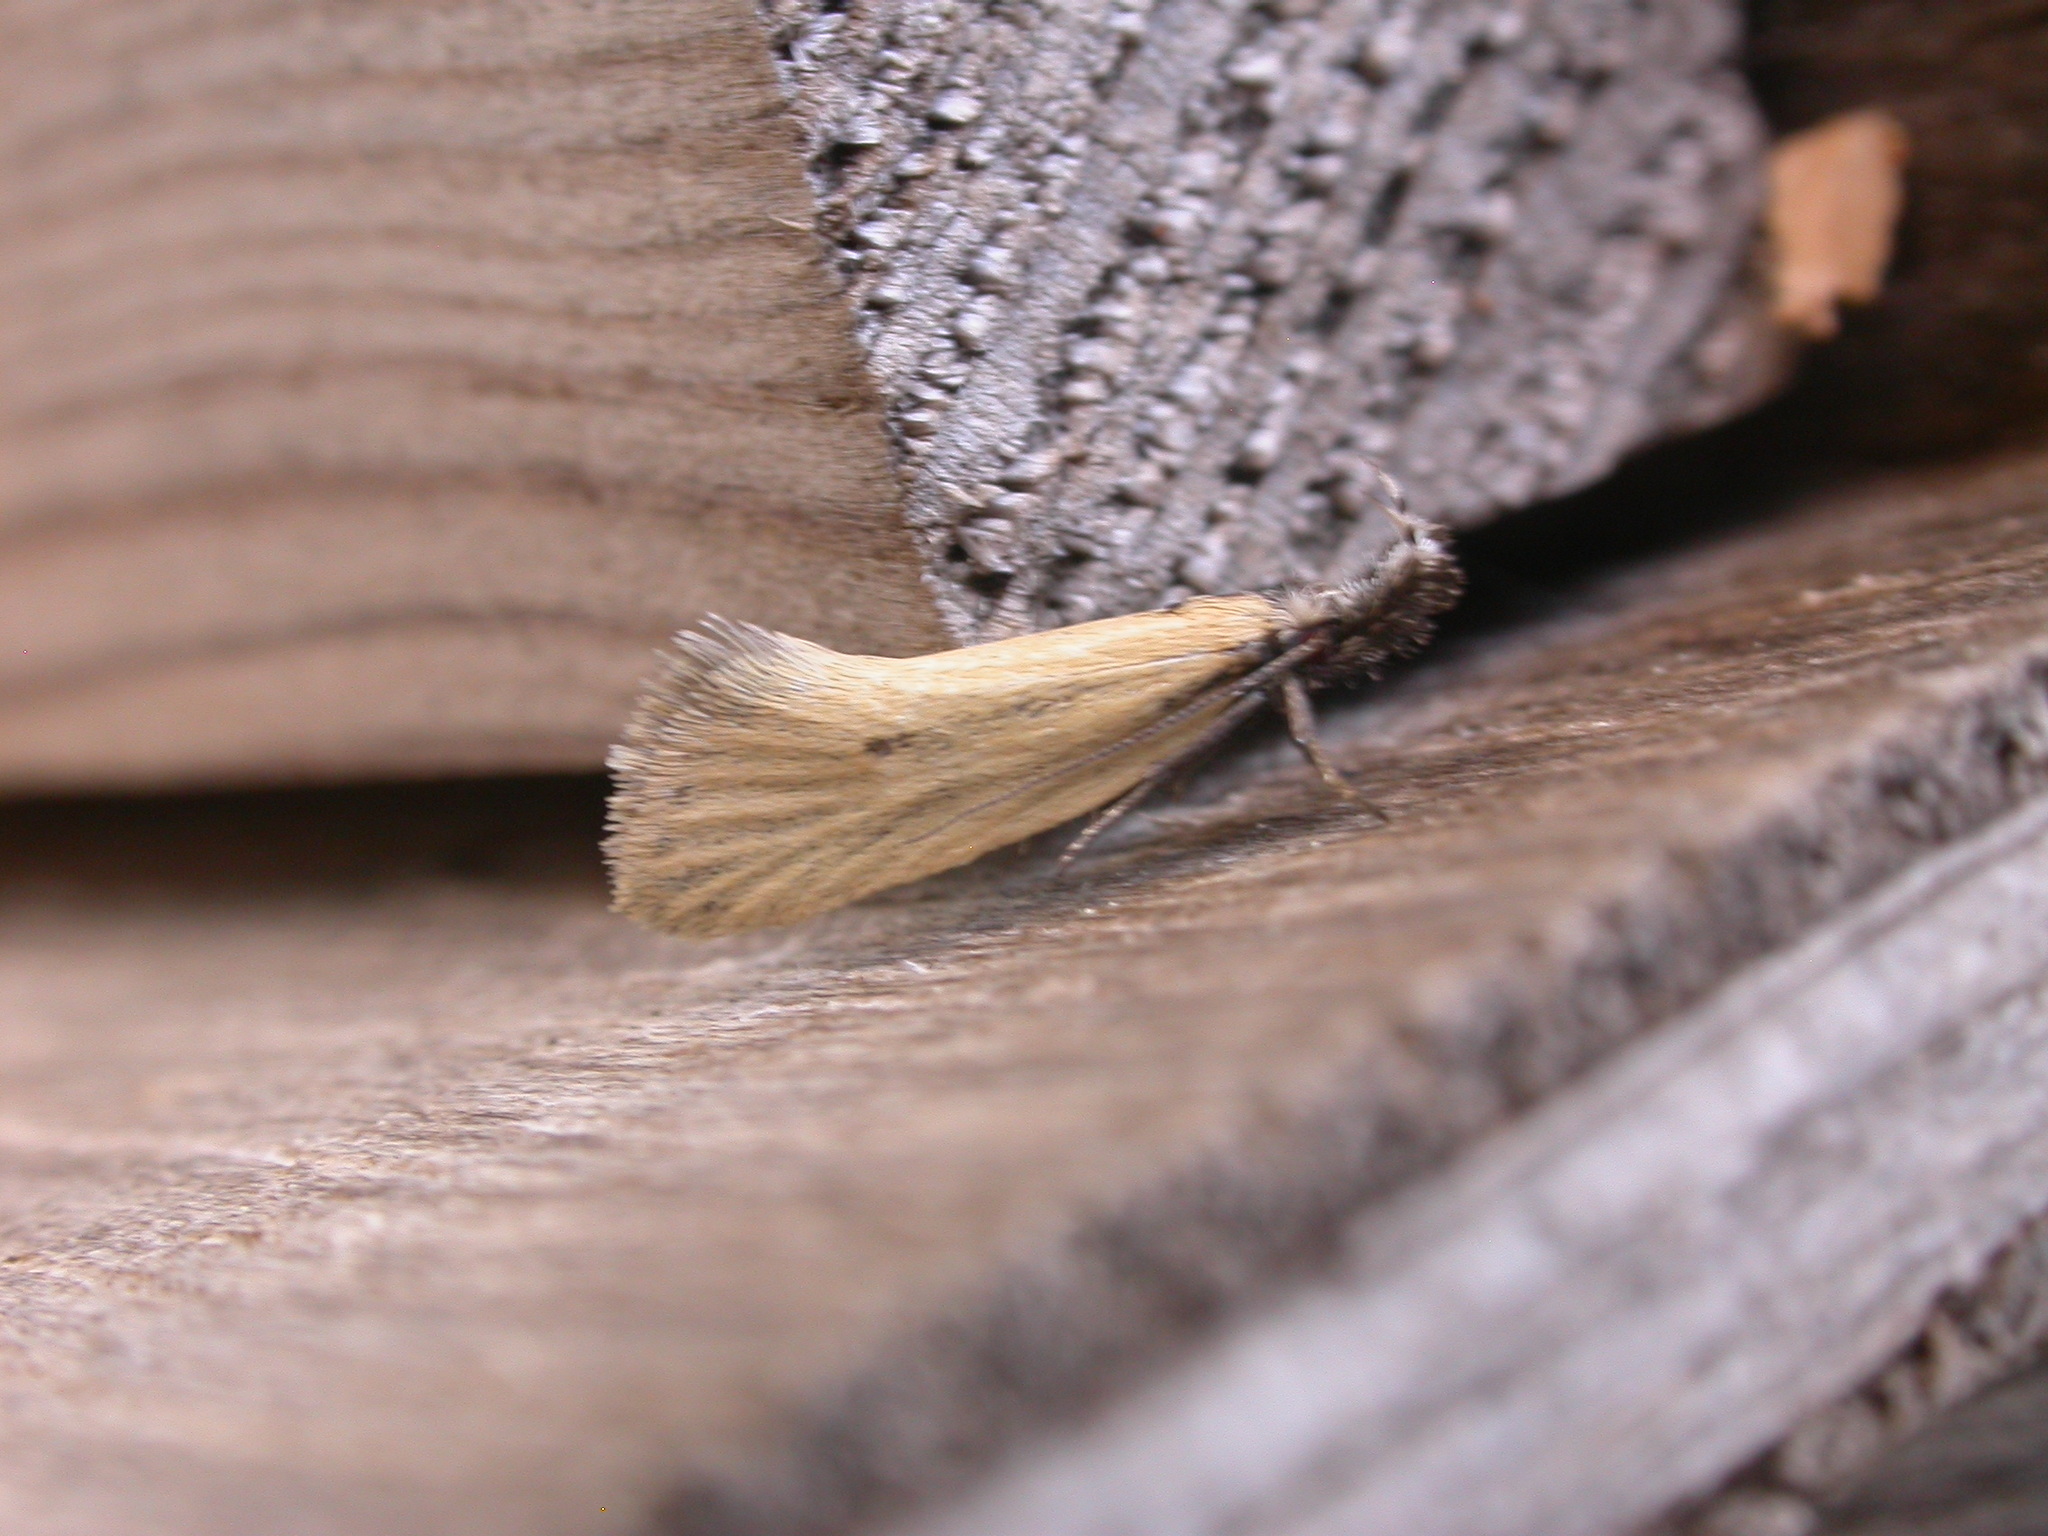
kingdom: Animalia
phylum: Arthropoda
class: Insecta
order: Lepidoptera
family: Oecophoridae
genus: Thema
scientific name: Thema protogramma
